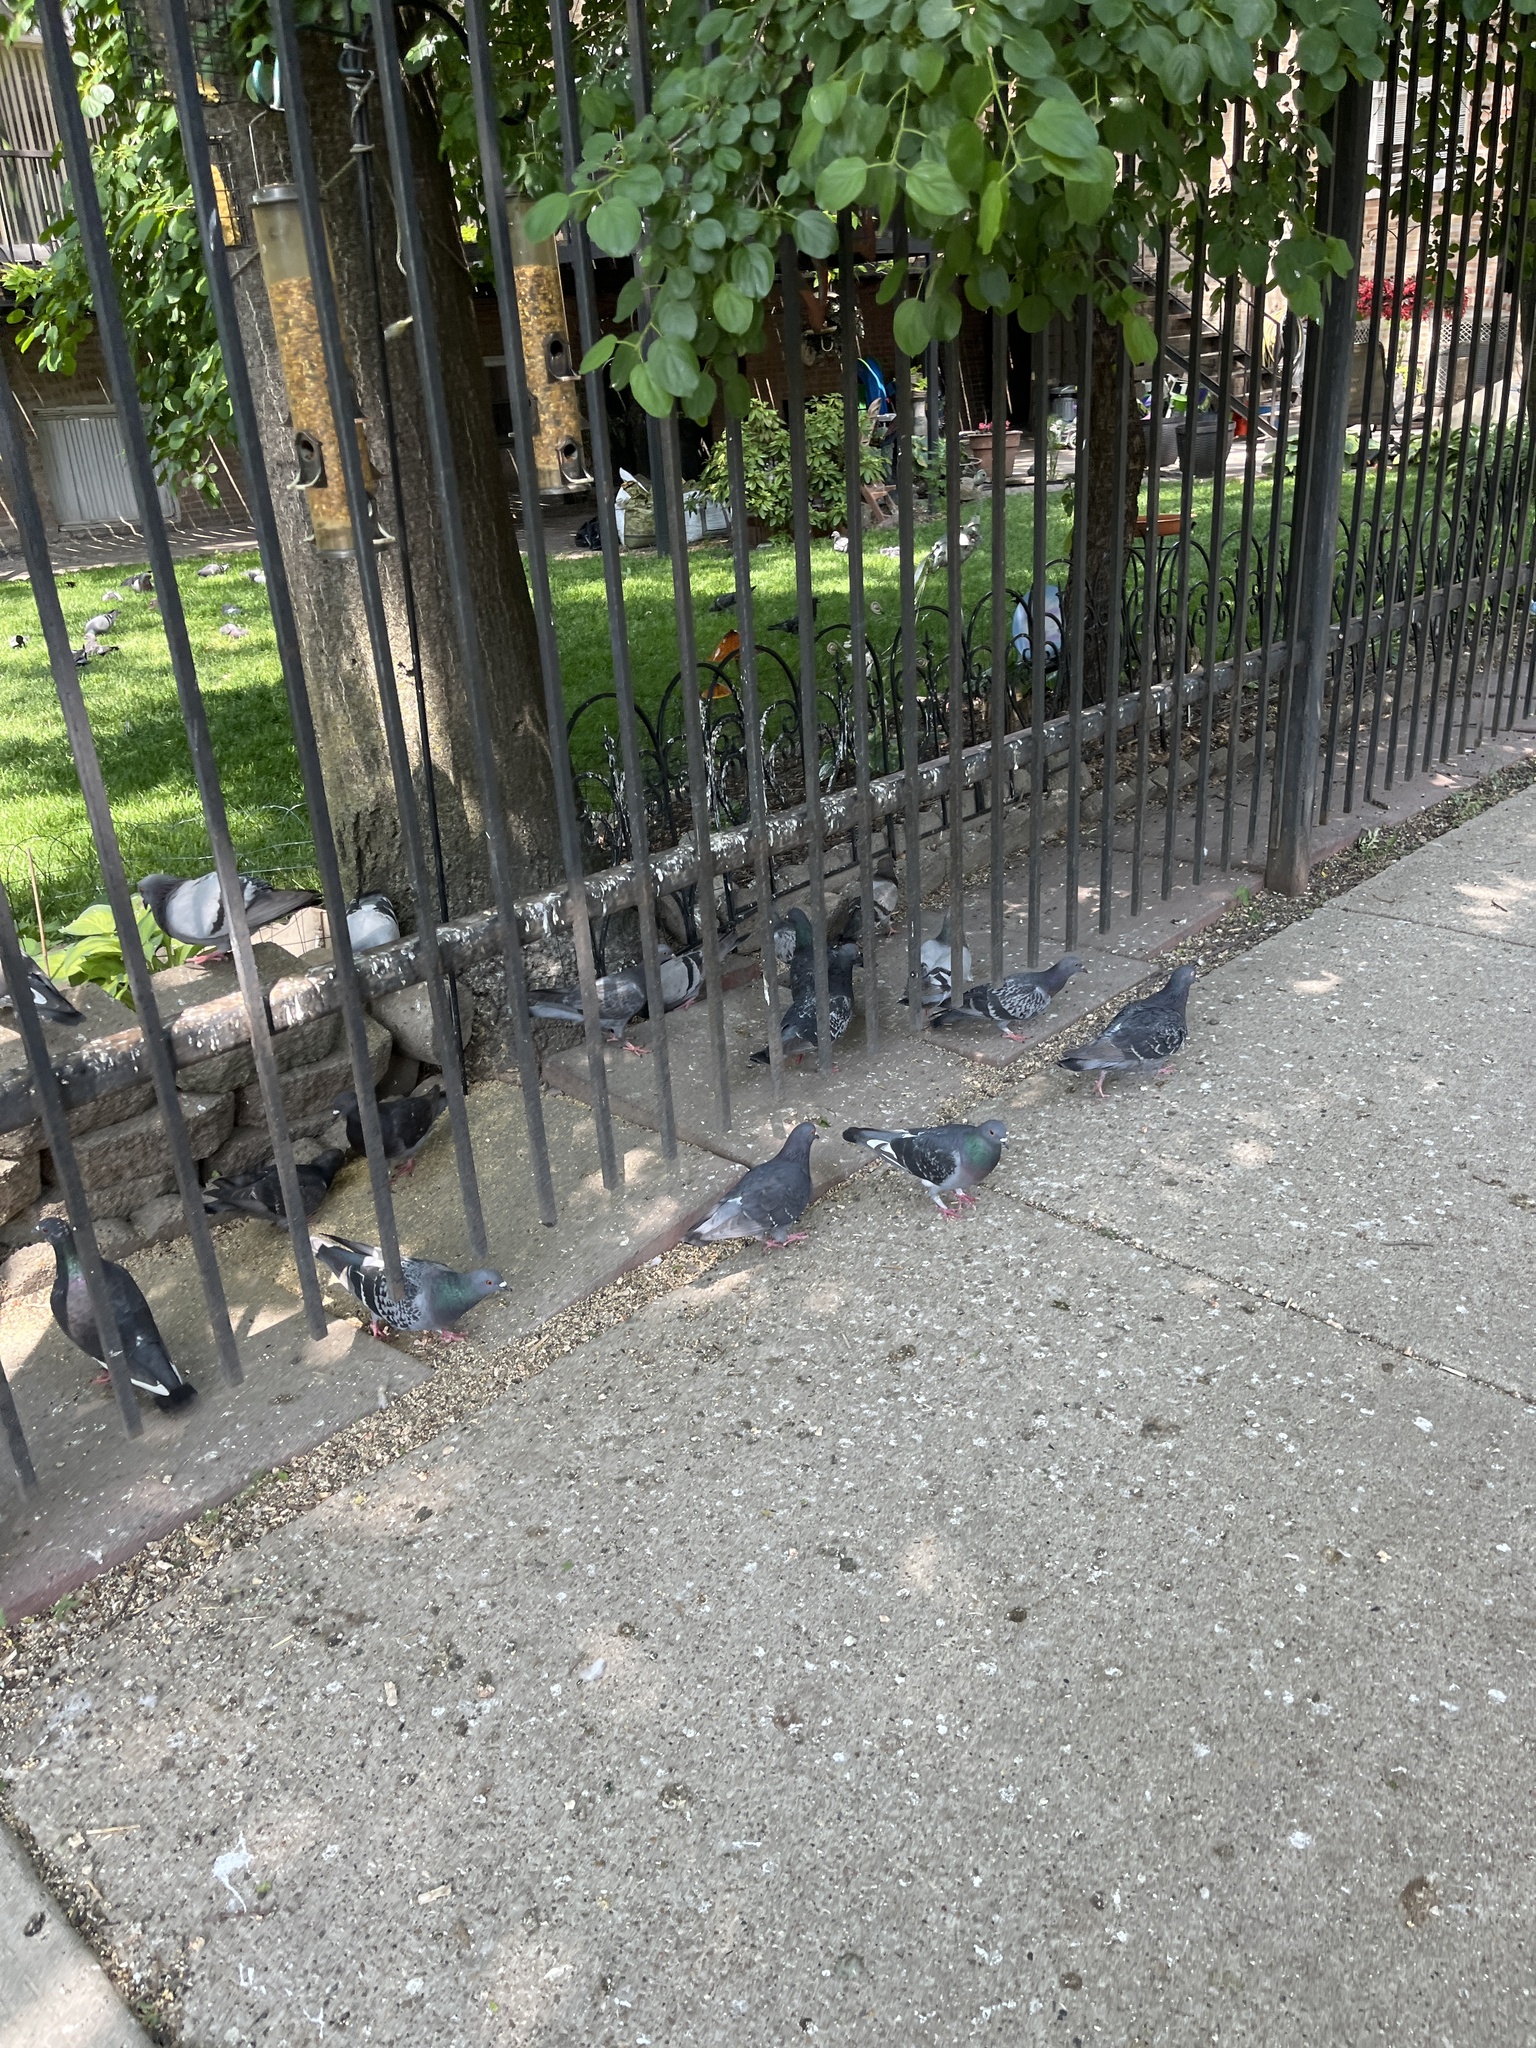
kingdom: Animalia
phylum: Chordata
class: Aves
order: Columbiformes
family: Columbidae
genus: Columba
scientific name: Columba livia
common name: Rock pigeon
